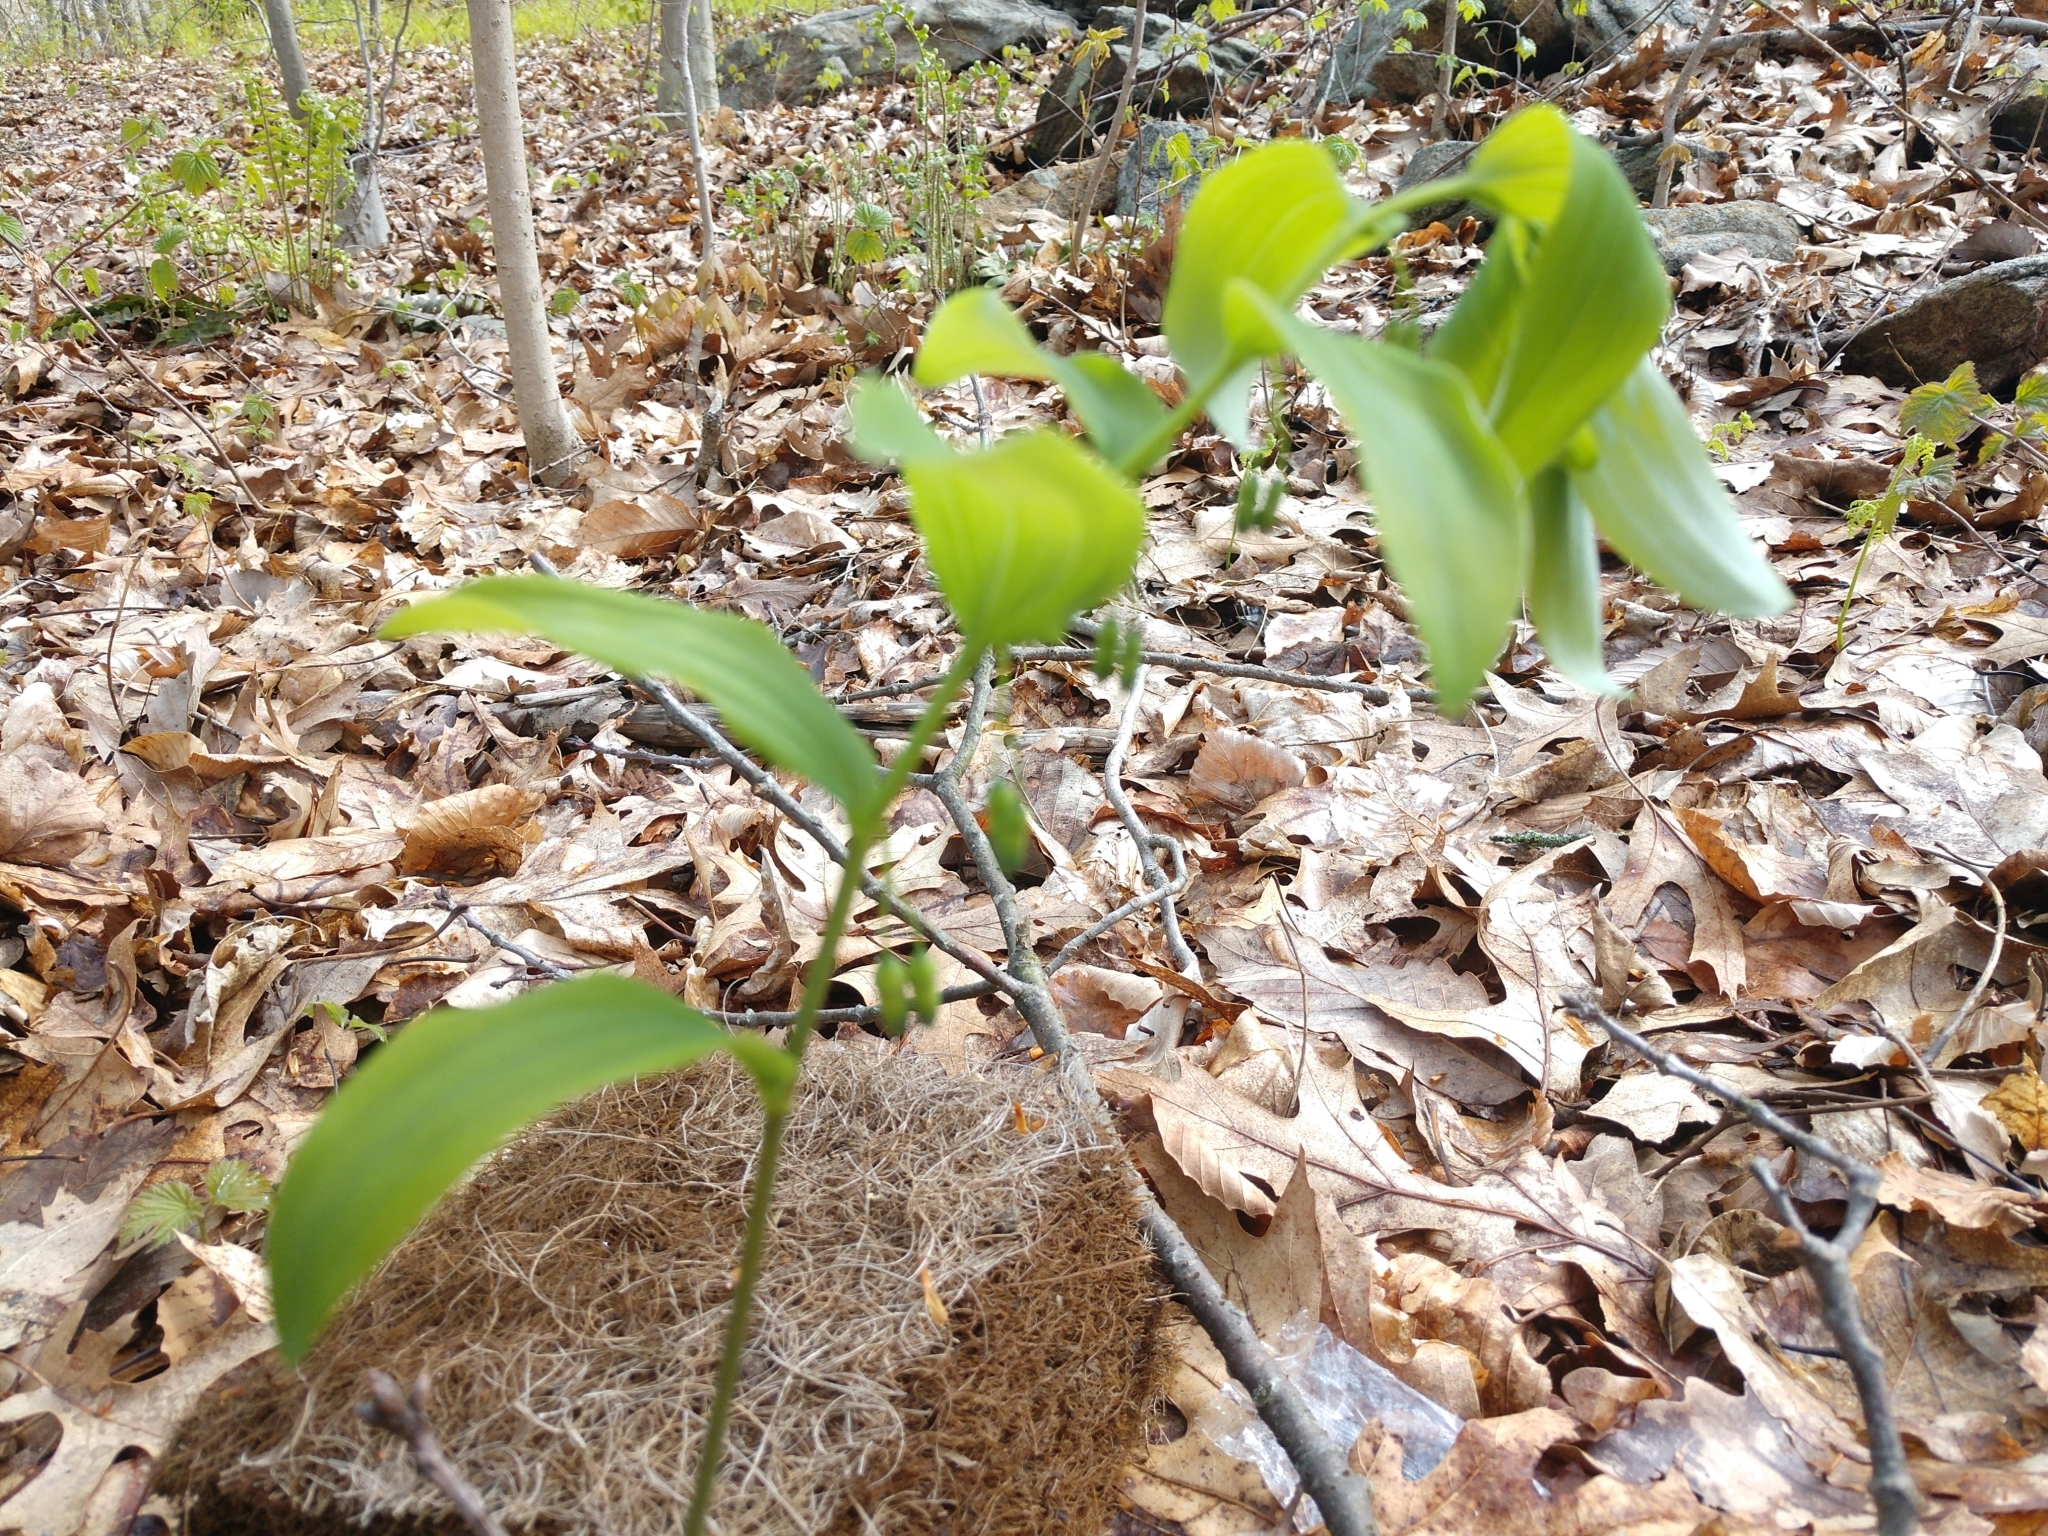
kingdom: Plantae
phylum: Tracheophyta
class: Liliopsida
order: Asparagales
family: Asparagaceae
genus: Polygonatum
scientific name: Polygonatum pubescens
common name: Downy solomon's seal
